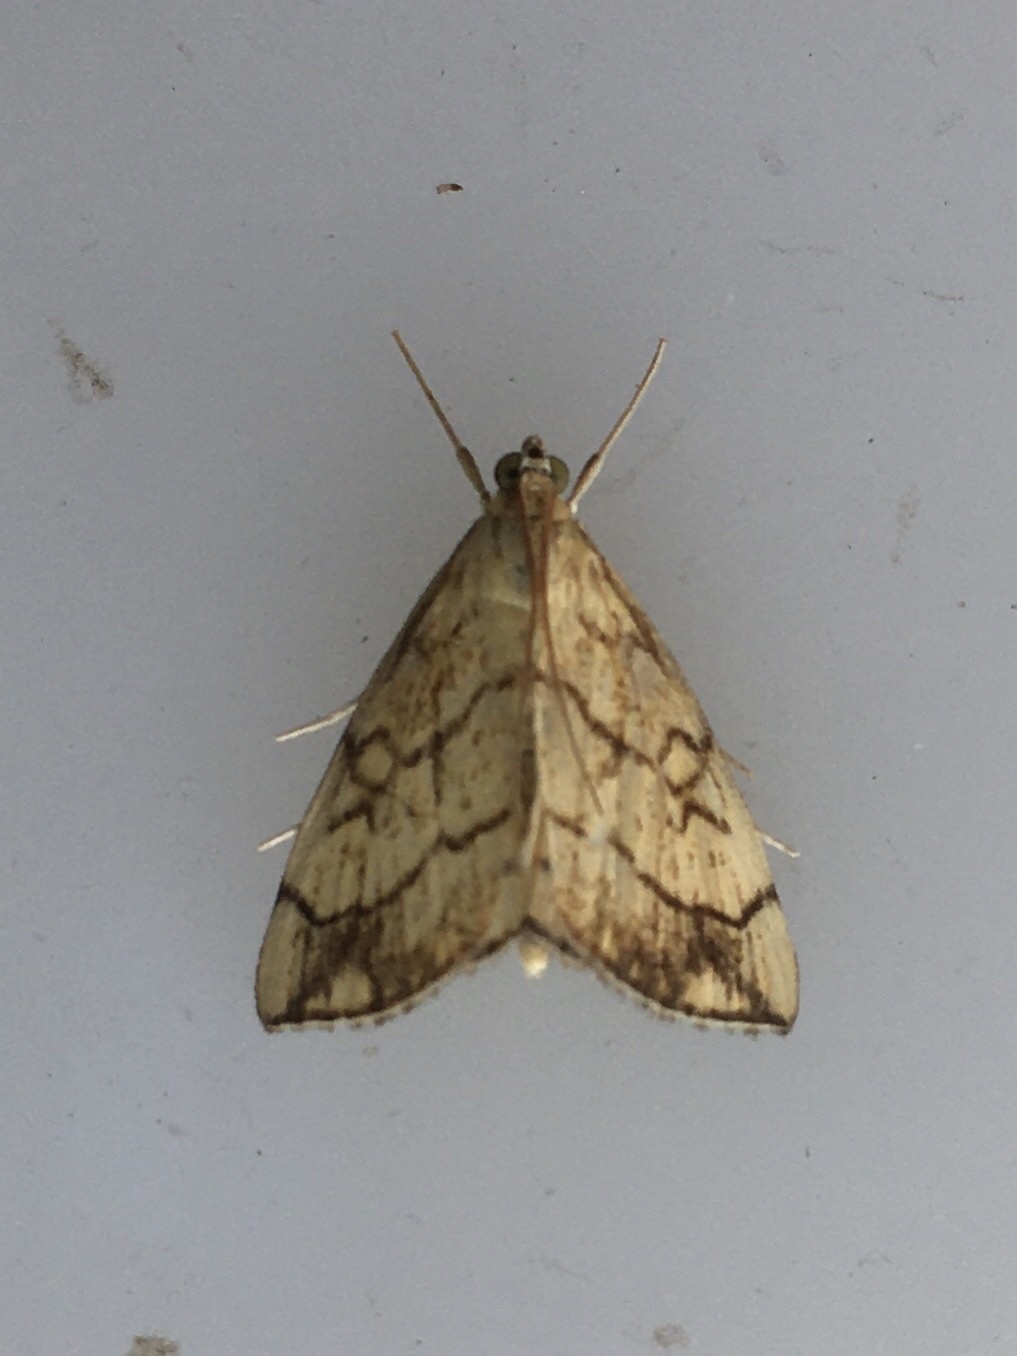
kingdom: Animalia
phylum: Arthropoda
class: Insecta
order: Lepidoptera
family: Crambidae
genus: Evergestis
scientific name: Evergestis pallidata
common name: Chequered pearl
